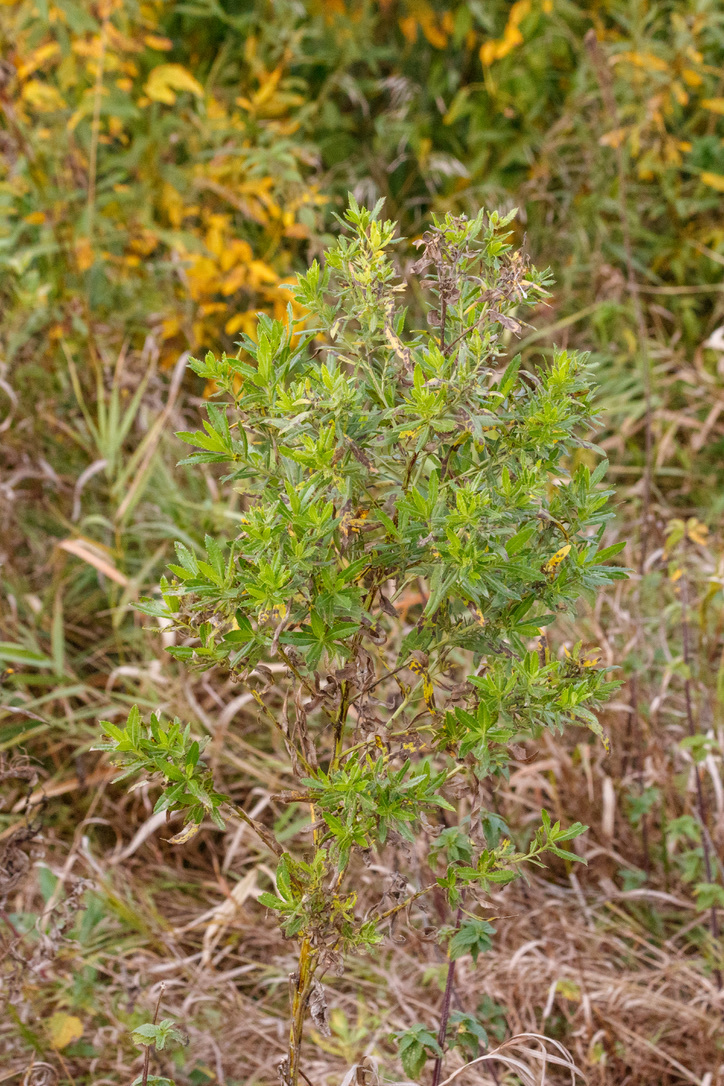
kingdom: Plantae
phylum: Tracheophyta
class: Magnoliopsida
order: Asterales
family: Asteraceae
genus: Cirsium
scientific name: Cirsium arvense
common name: Creeping thistle
